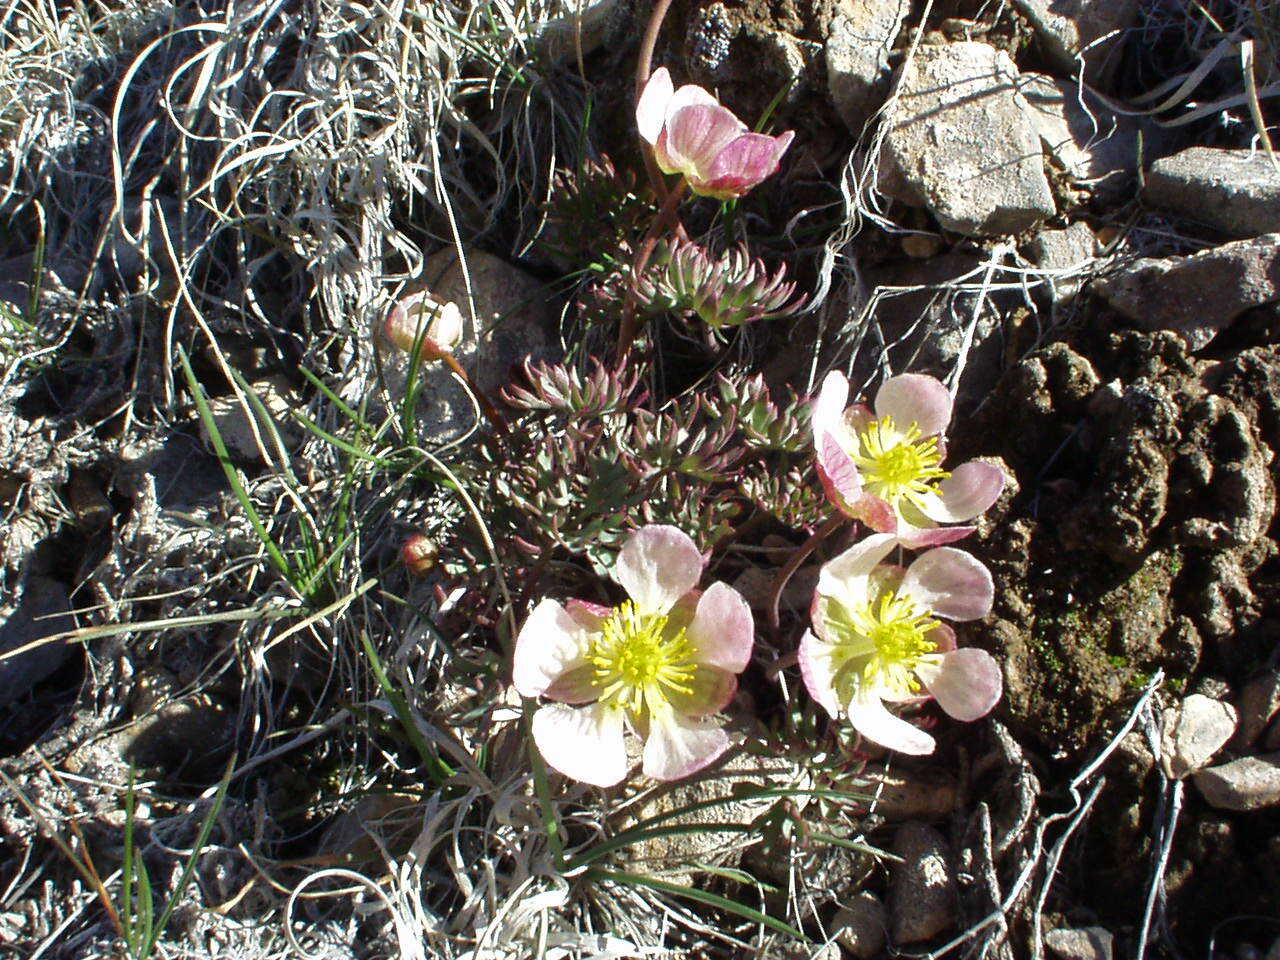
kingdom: Plantae
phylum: Tracheophyta
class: Magnoliopsida
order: Ranunculales
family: Ranunculaceae
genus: Beckwithia
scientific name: Beckwithia andersonii
